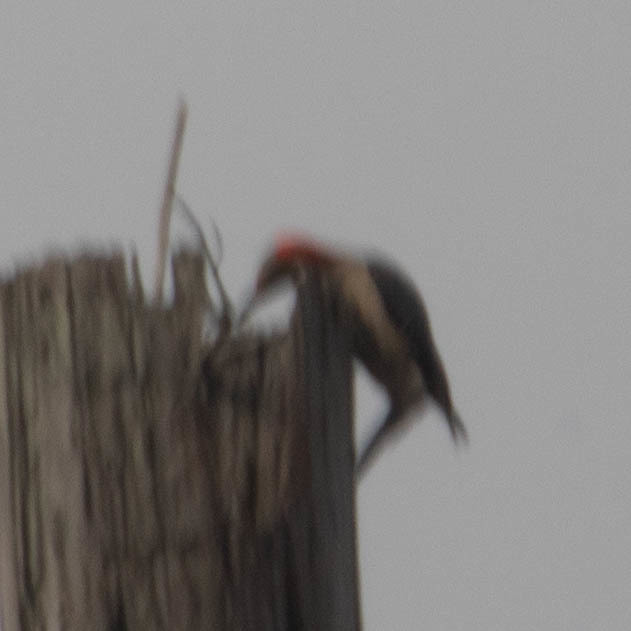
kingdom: Animalia
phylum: Chordata
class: Aves
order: Piciformes
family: Picidae
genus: Melanerpes
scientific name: Melanerpes carolinus
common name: Red-bellied woodpecker
